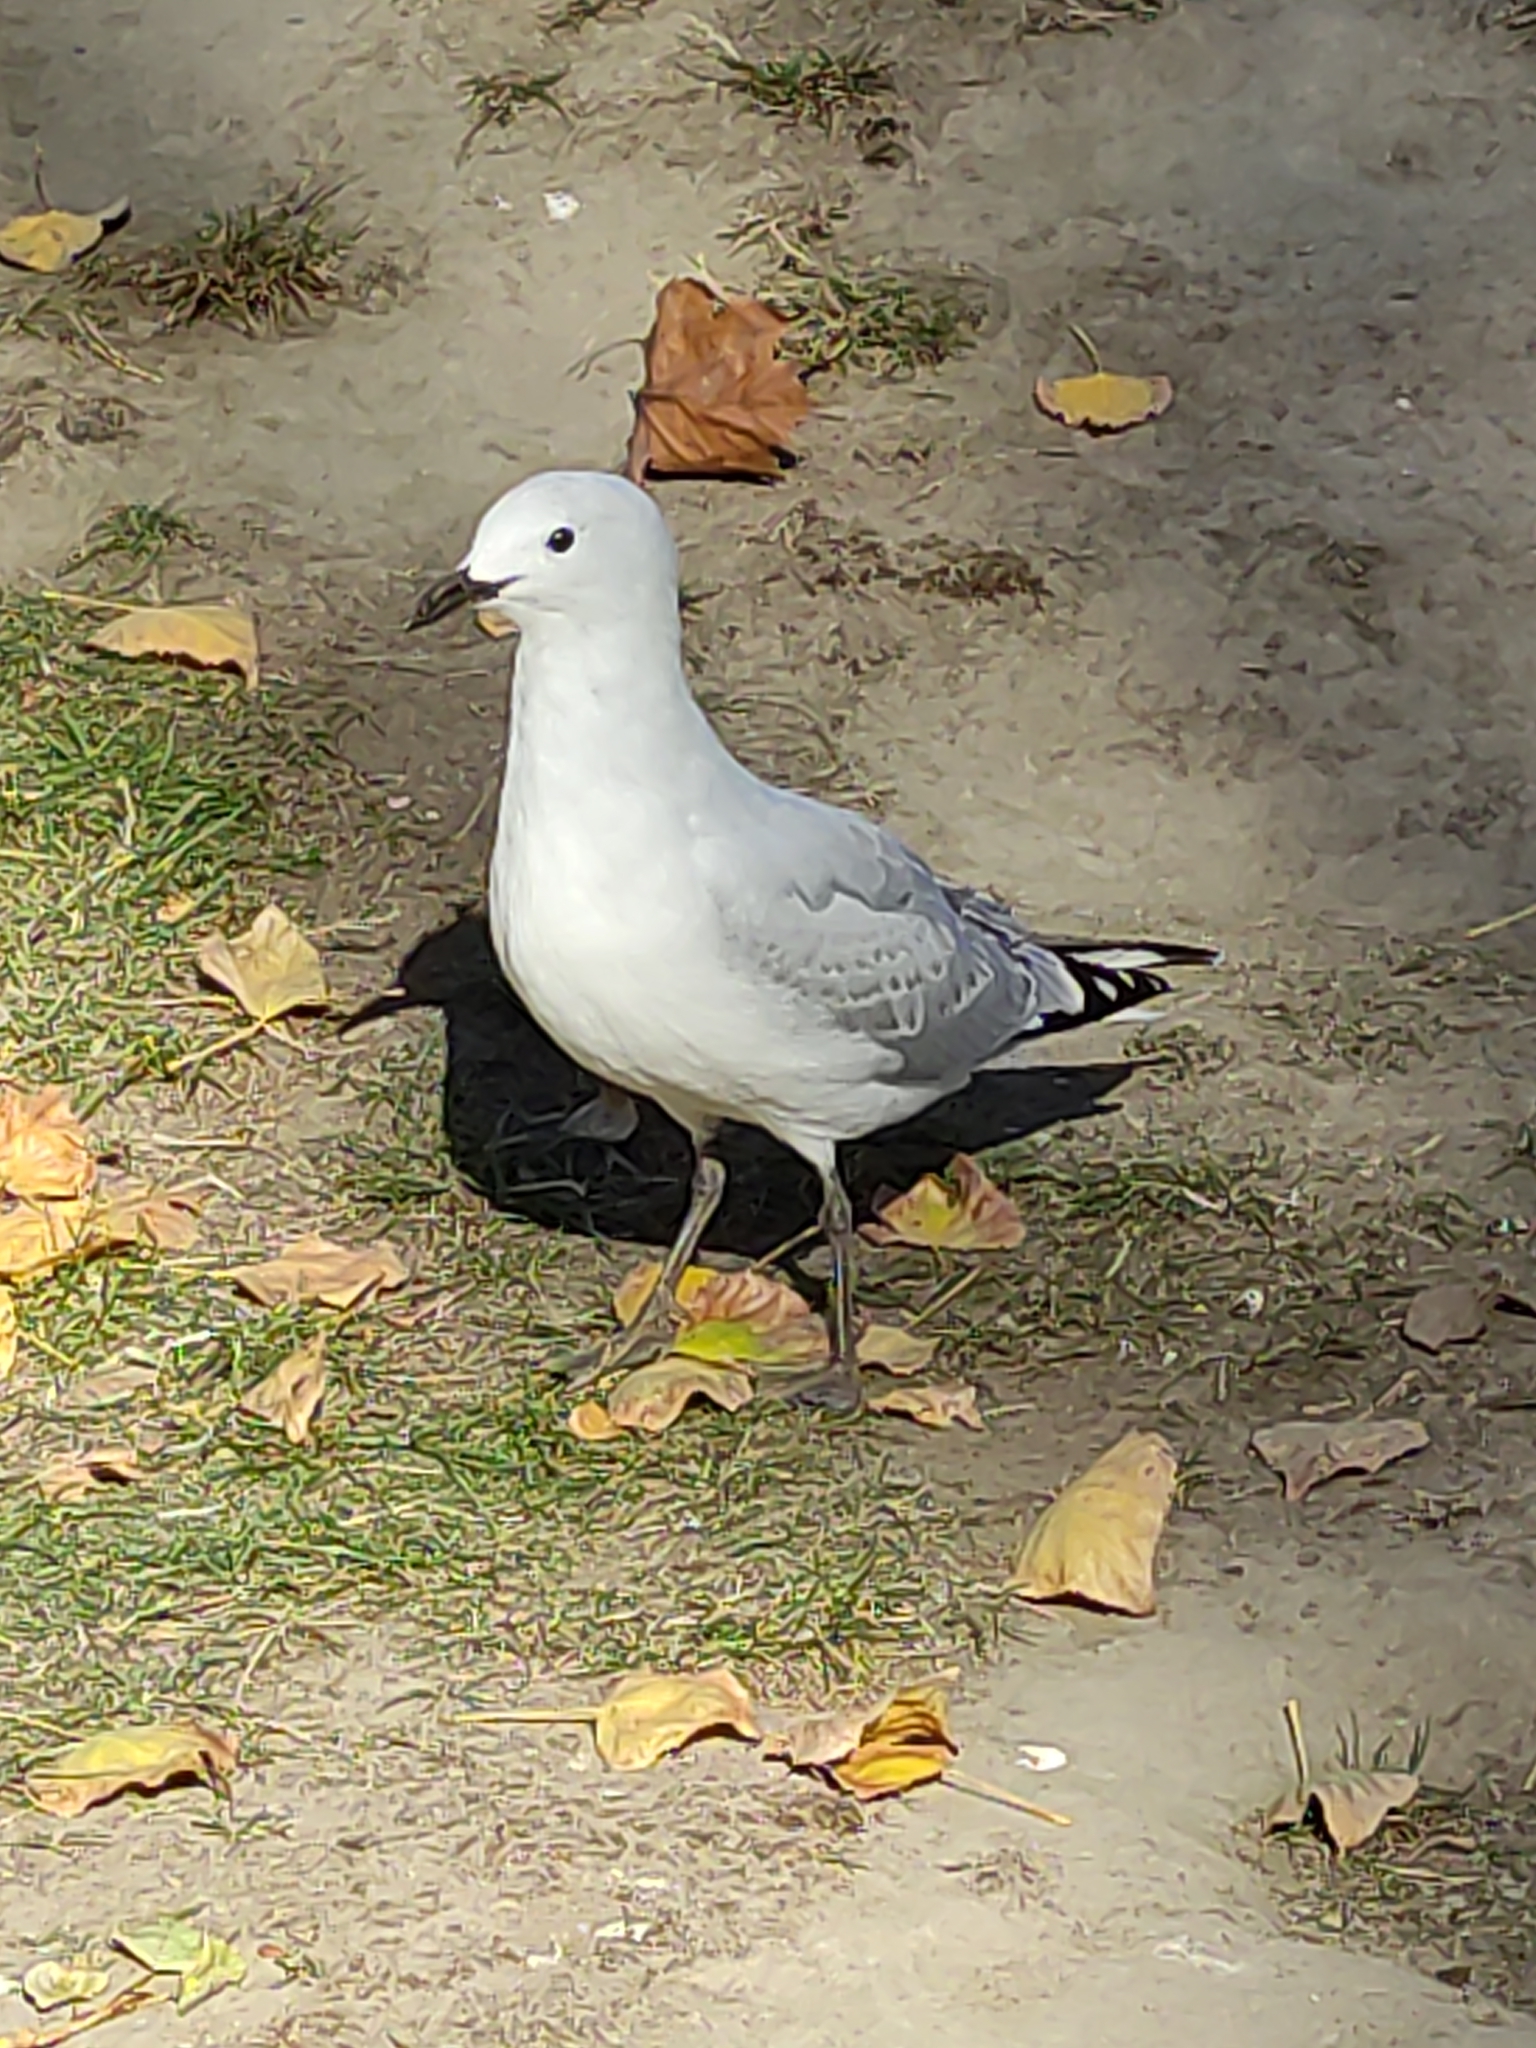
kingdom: Animalia
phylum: Chordata
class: Aves
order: Charadriiformes
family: Laridae
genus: Chroicocephalus
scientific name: Chroicocephalus novaehollandiae
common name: Silver gull
